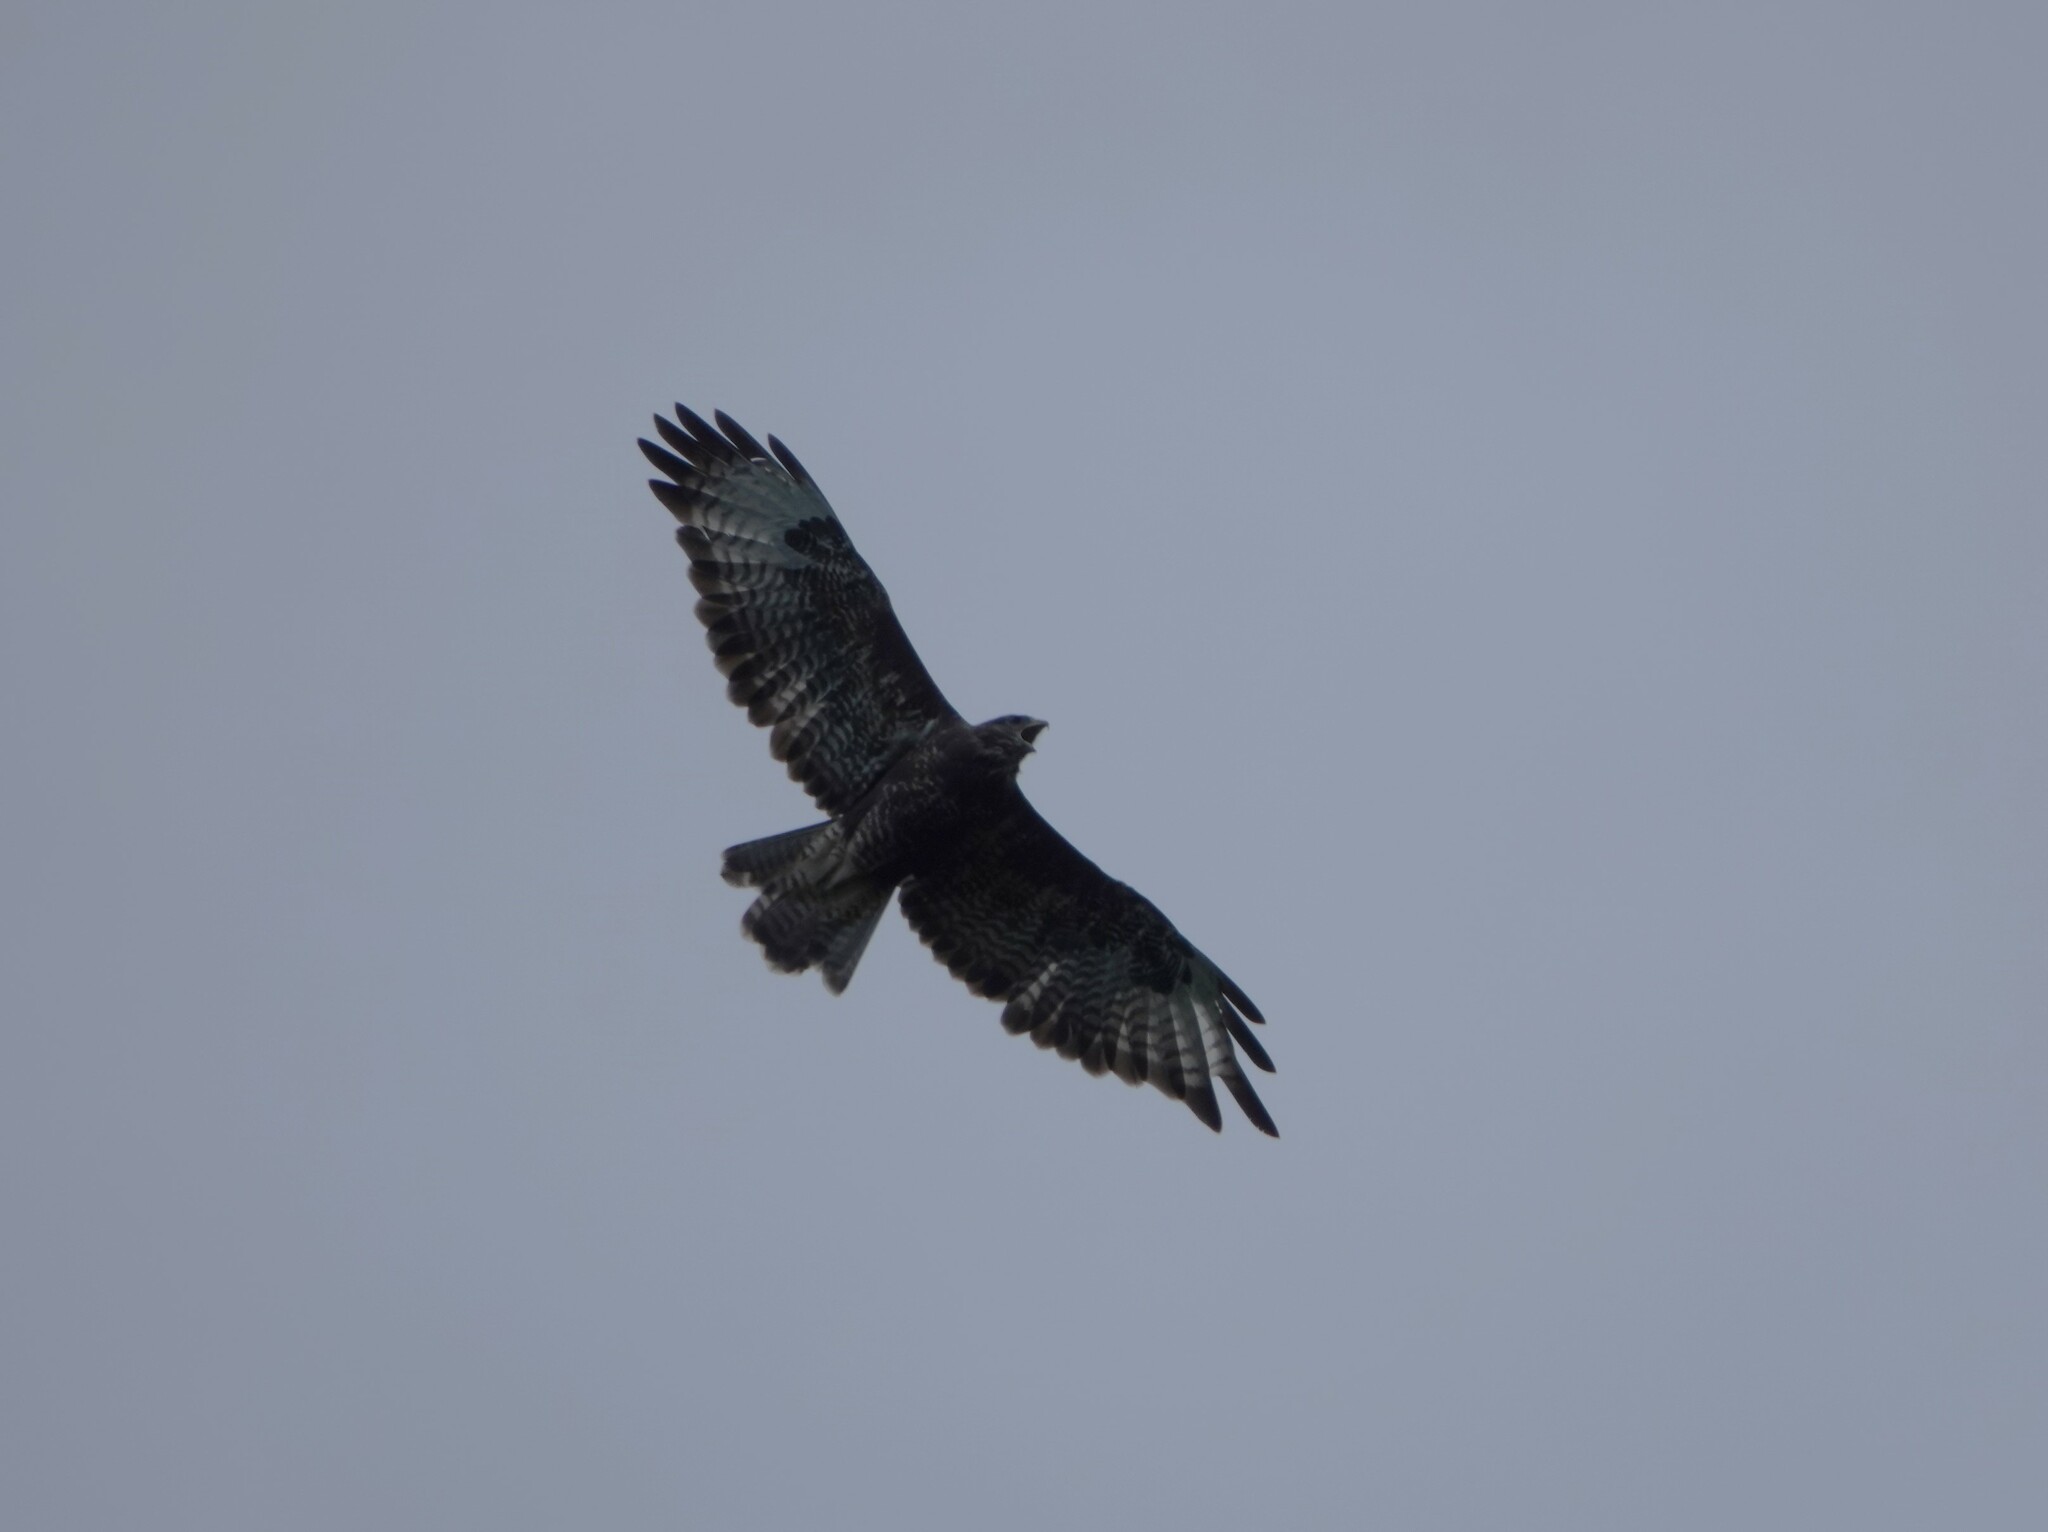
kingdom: Animalia
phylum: Chordata
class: Aves
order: Accipitriformes
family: Accipitridae
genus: Buteo
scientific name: Buteo buteo
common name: Common buzzard
